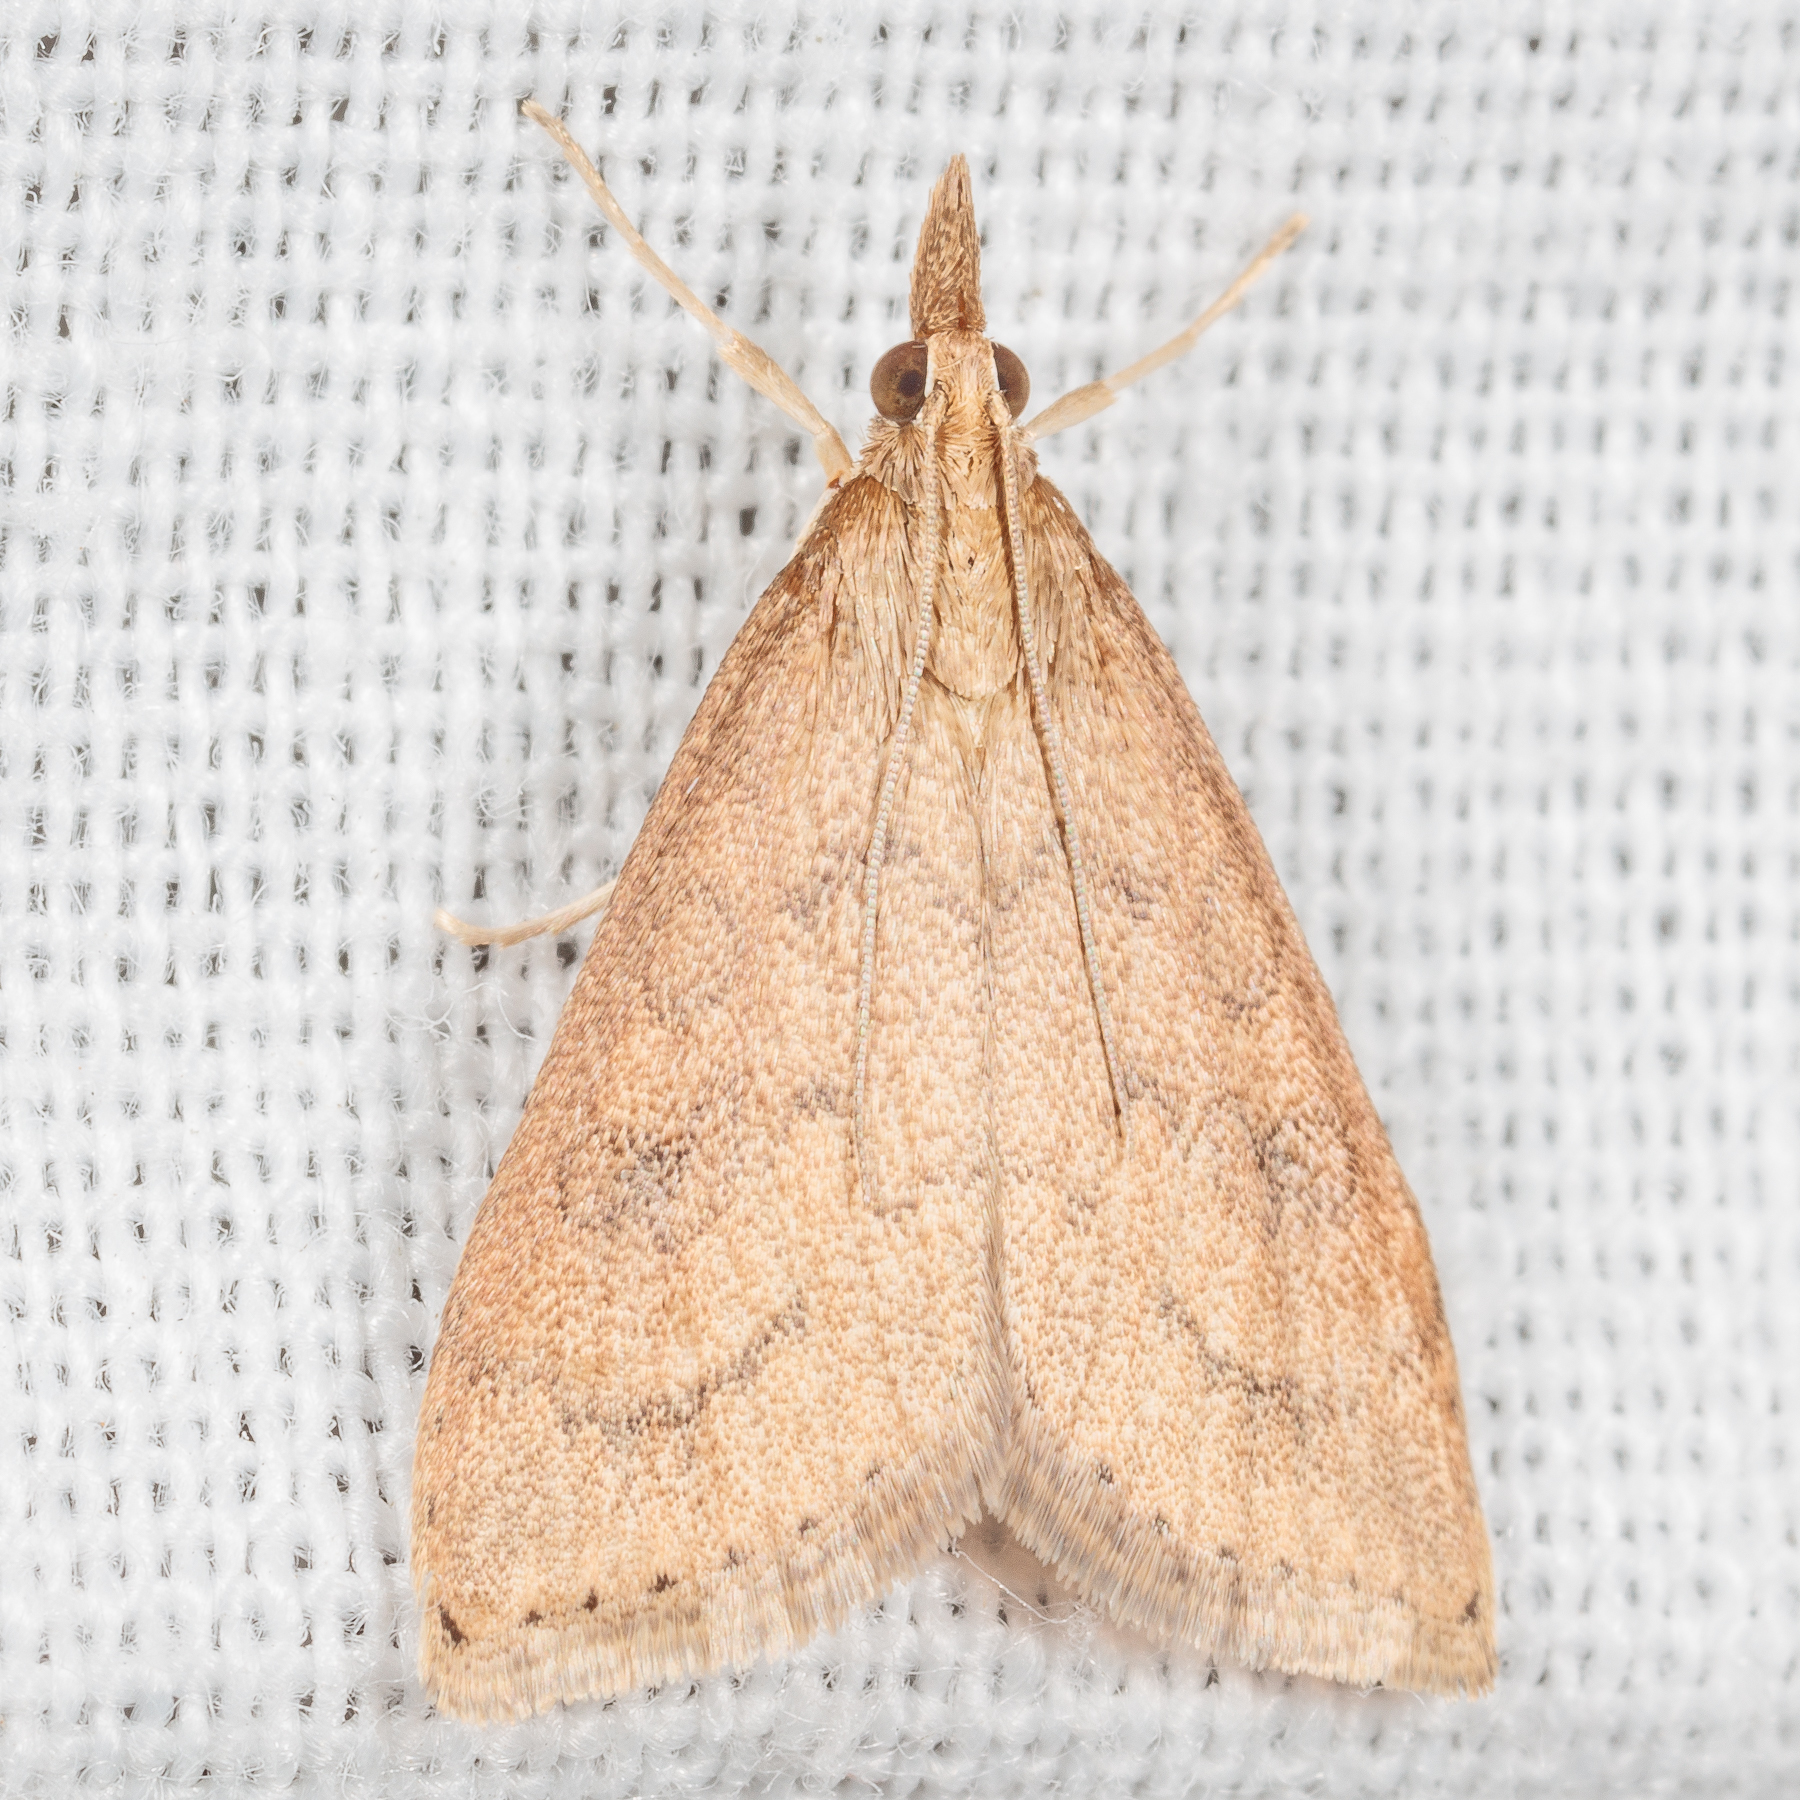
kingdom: Animalia
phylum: Arthropoda
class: Insecta
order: Lepidoptera
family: Crambidae
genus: Udea
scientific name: Udea rubigalis
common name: Celery leaftier moth
